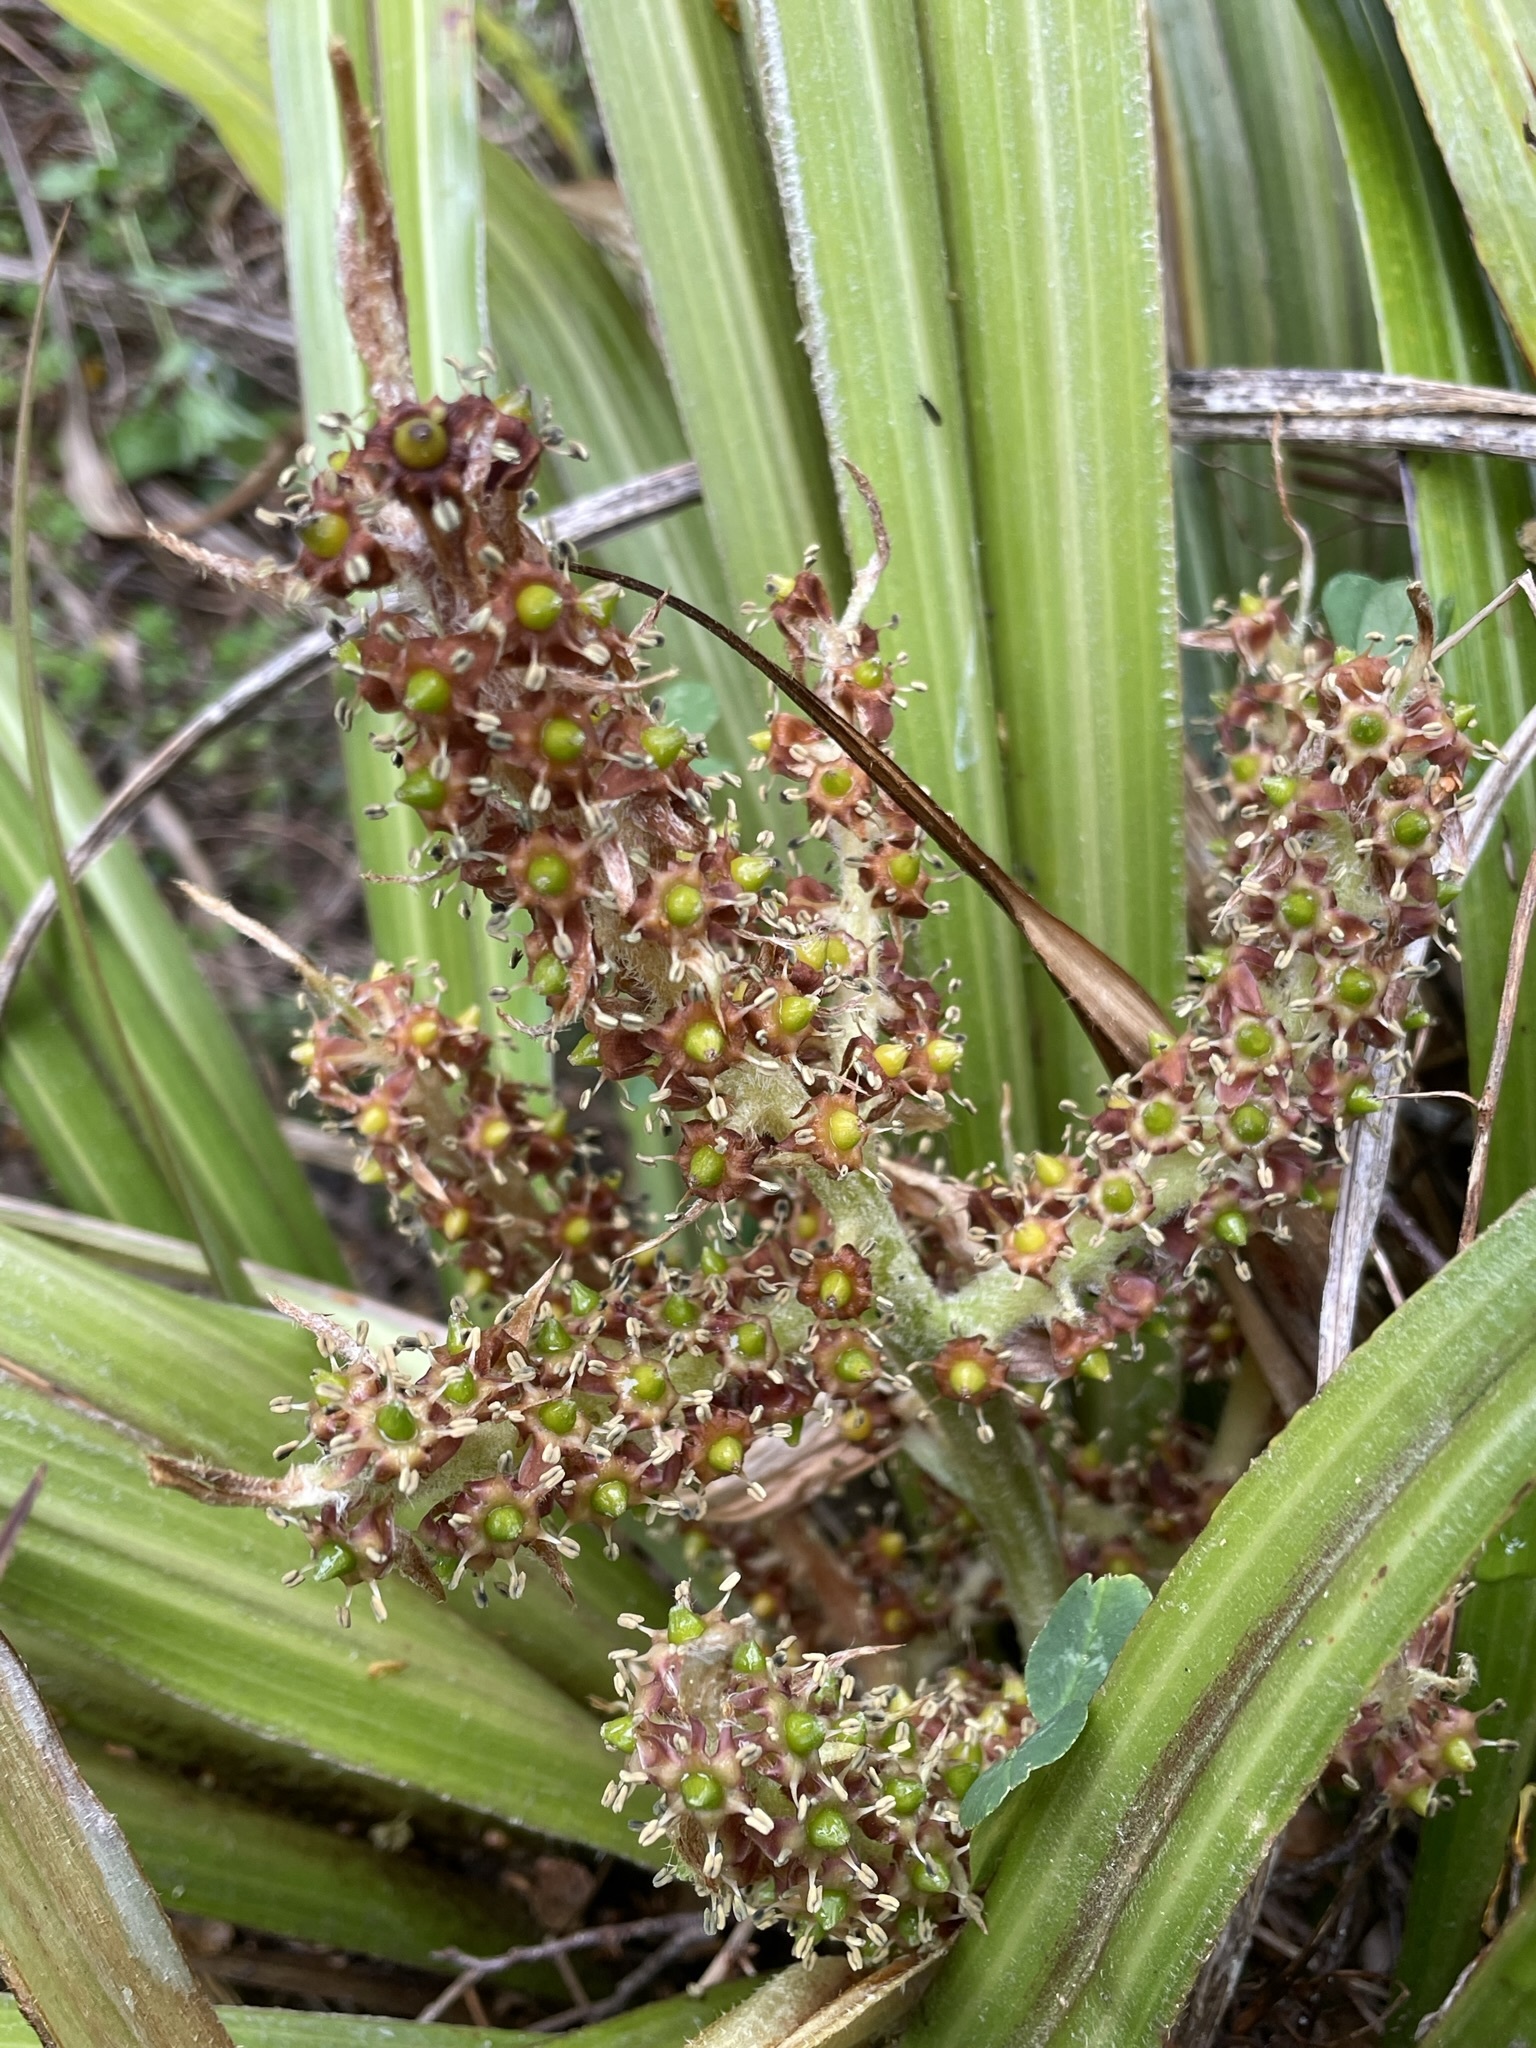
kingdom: Plantae
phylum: Tracheophyta
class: Liliopsida
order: Asparagales
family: Asteliaceae
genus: Astelia
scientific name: Astelia fragrans
